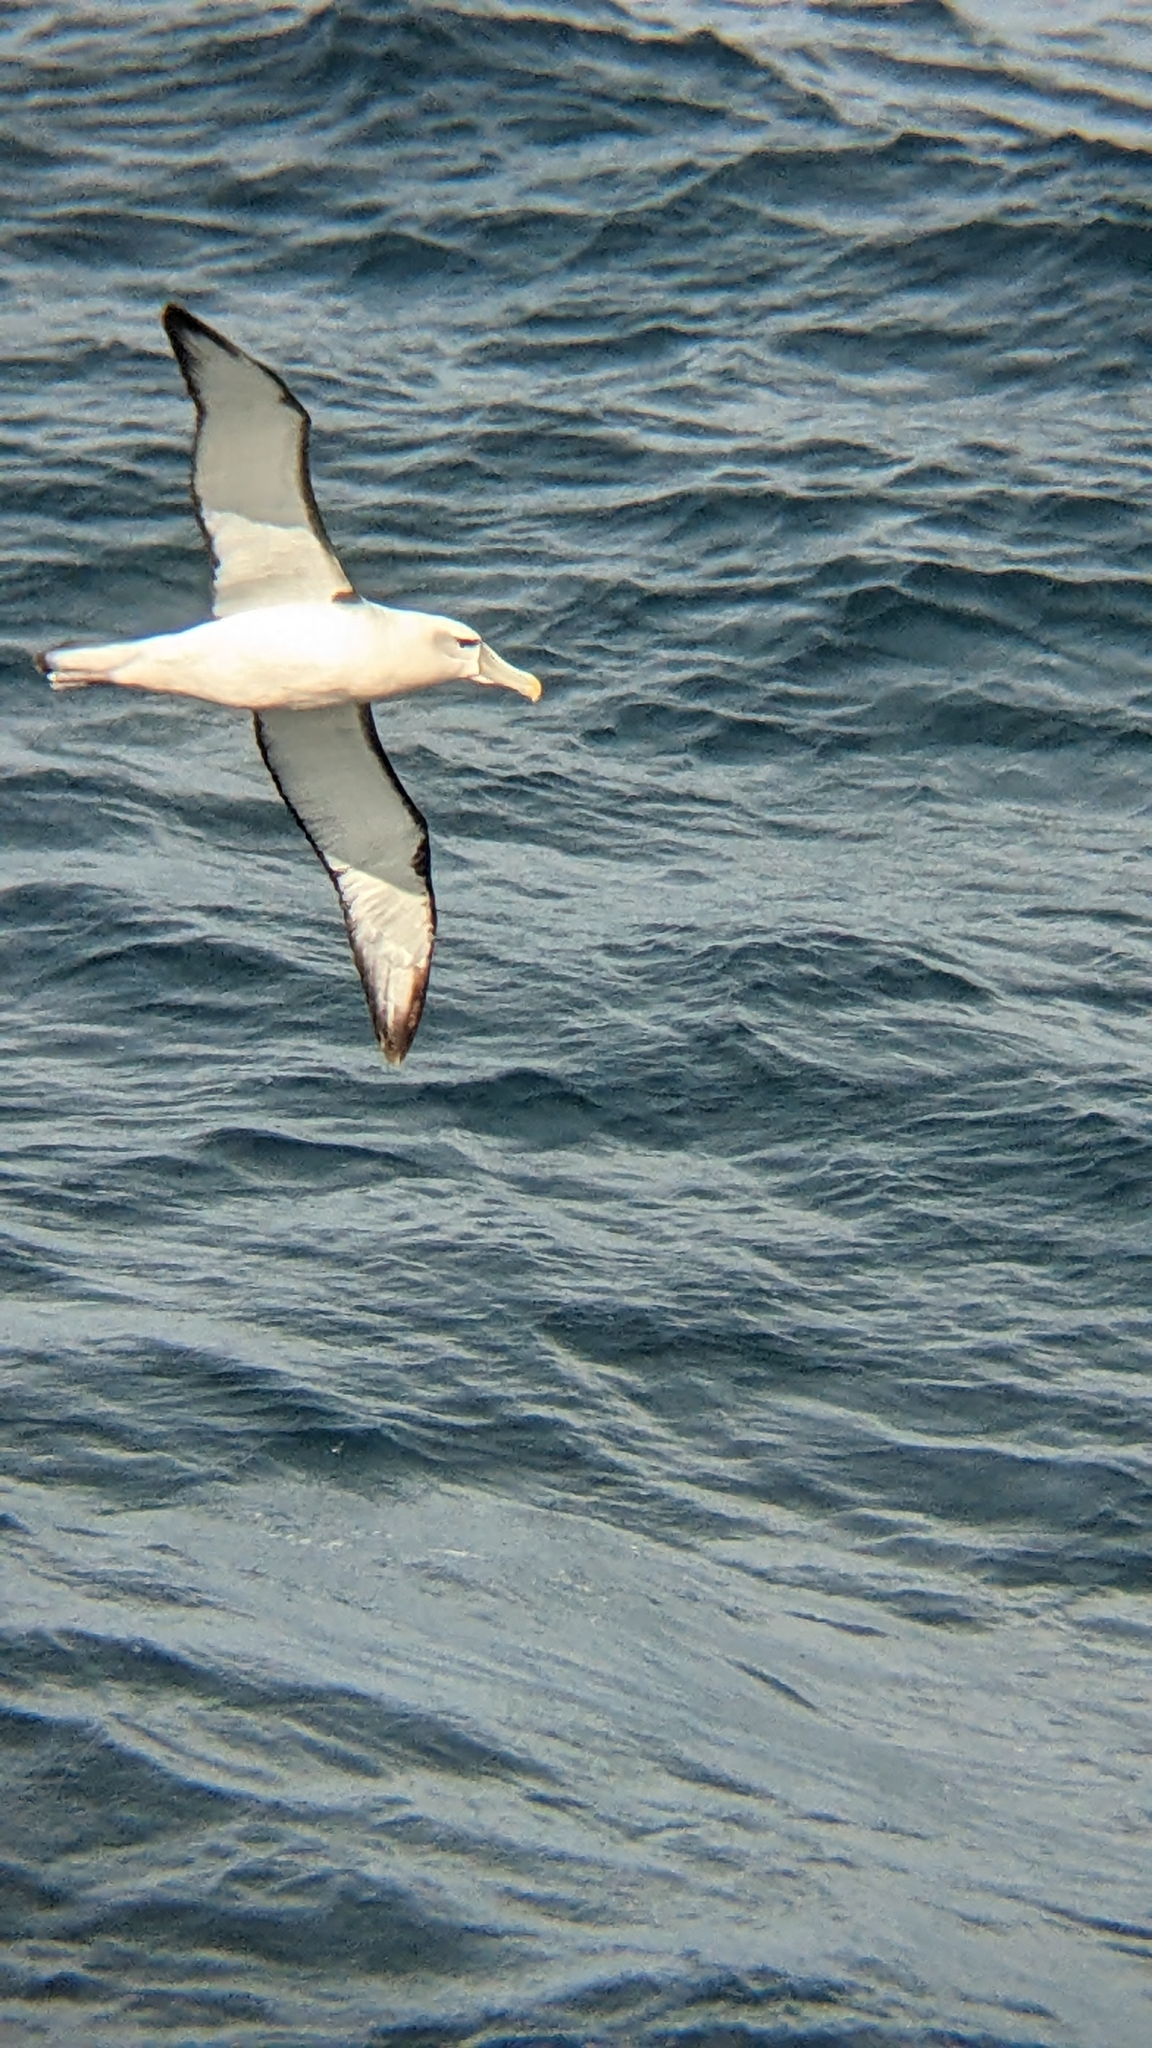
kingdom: Animalia
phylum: Chordata
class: Aves
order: Procellariiformes
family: Diomedeidae
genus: Thalassarche
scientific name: Thalassarche cauta
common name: Shy albatross
